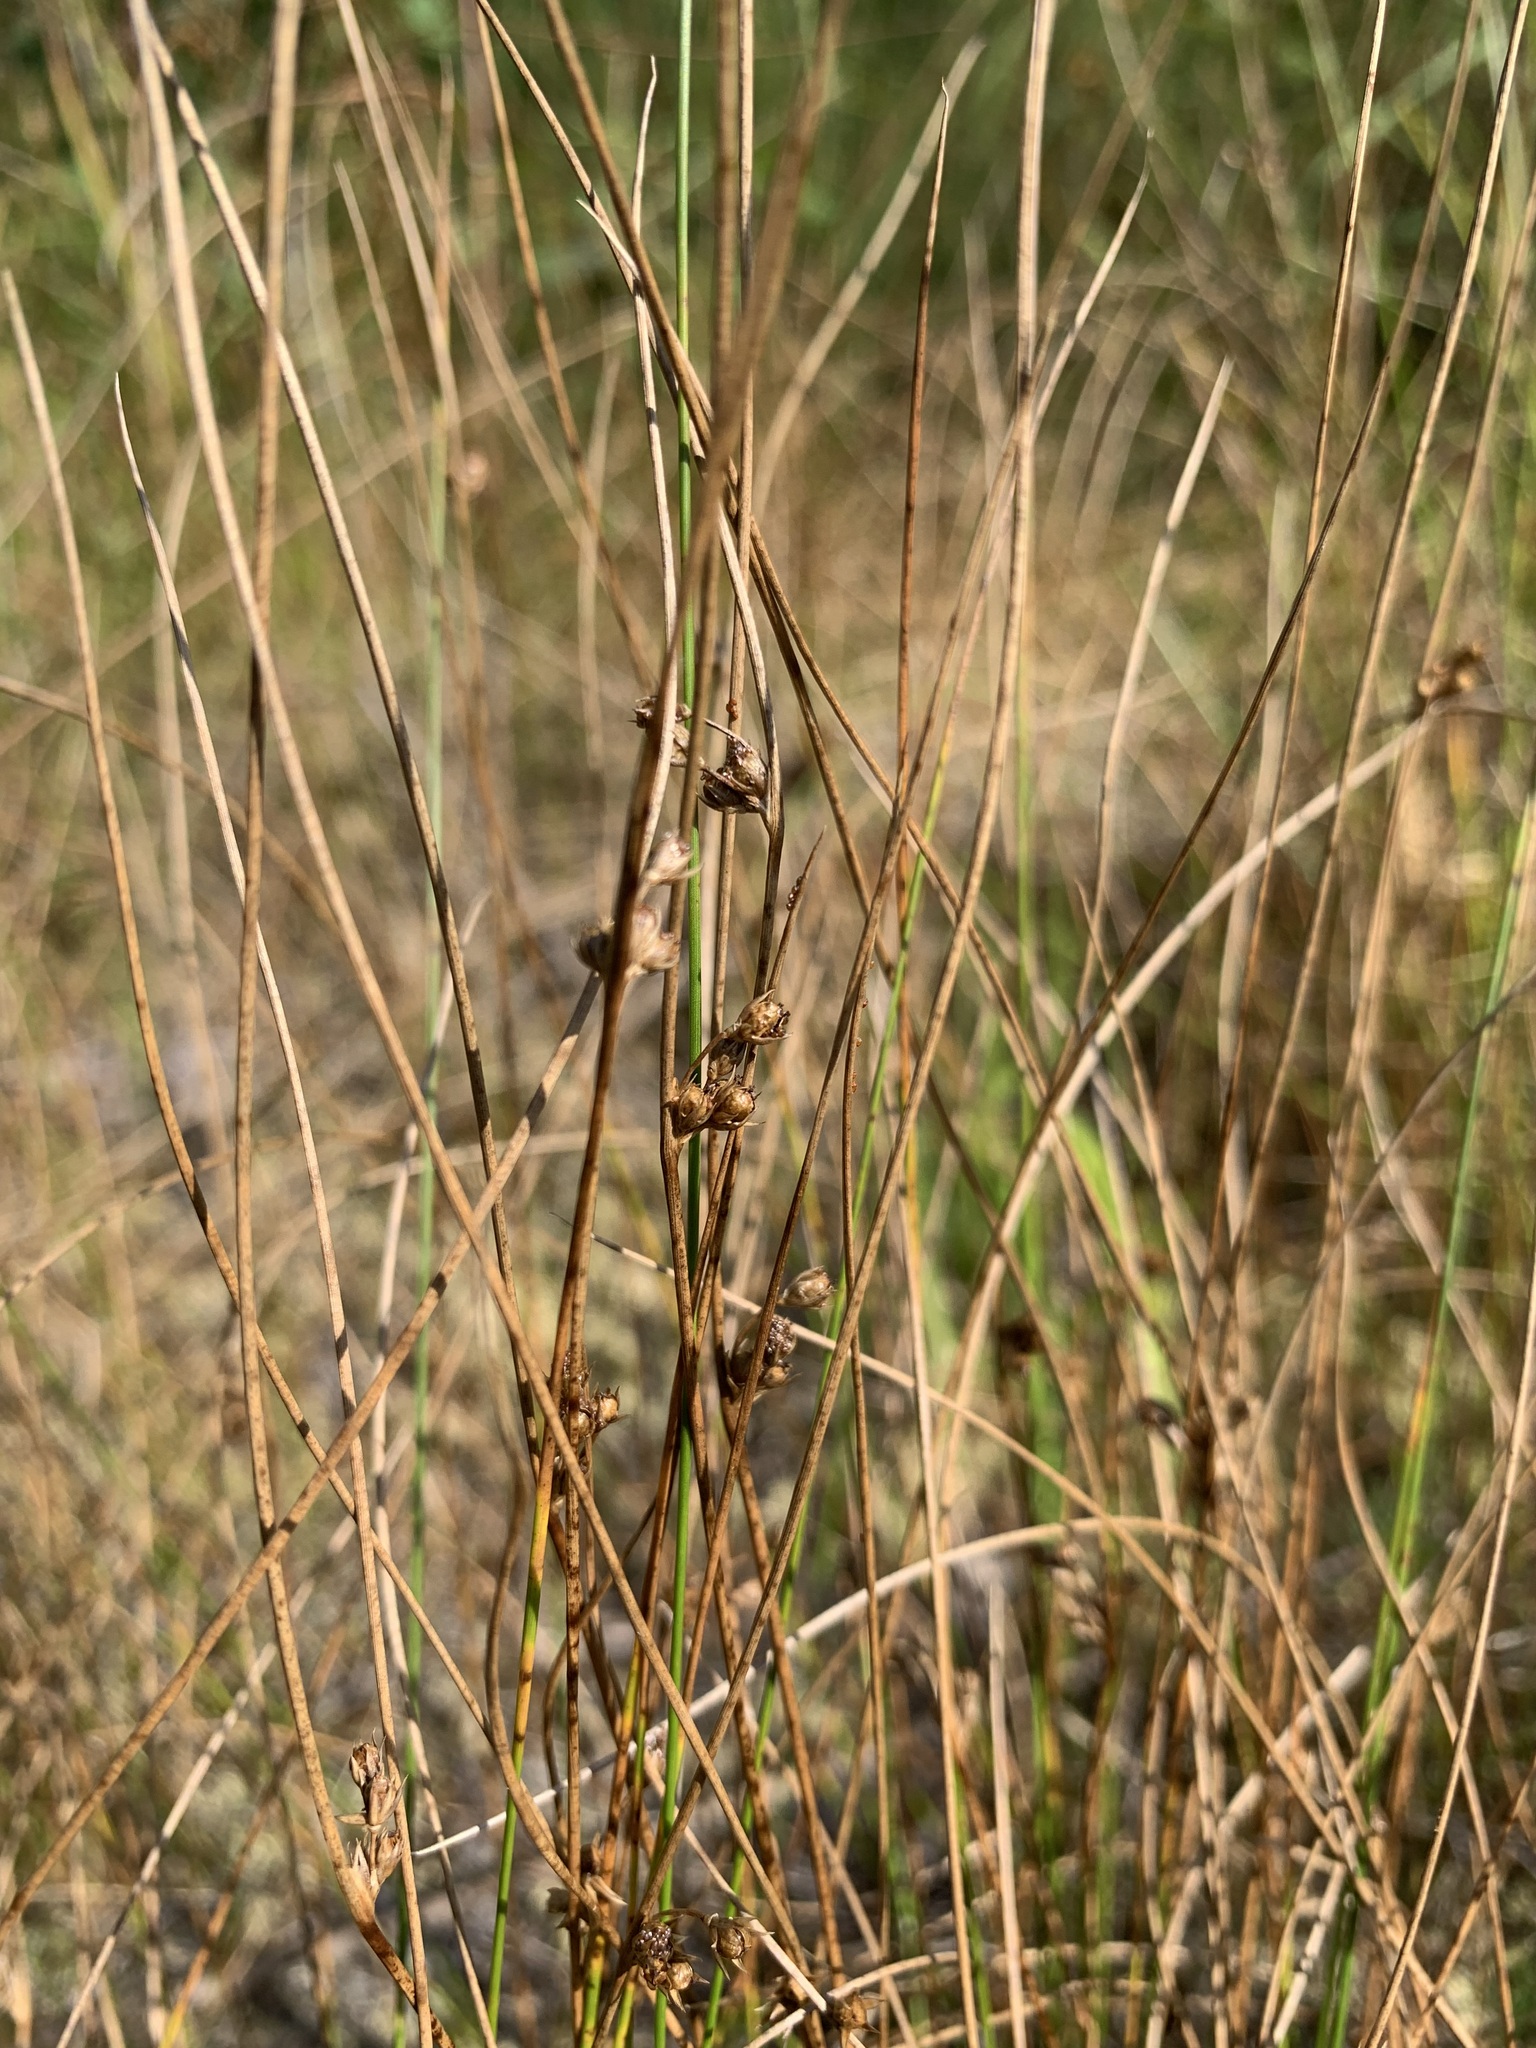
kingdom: Plantae
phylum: Tracheophyta
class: Liliopsida
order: Poales
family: Juncaceae
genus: Juncus
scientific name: Juncus filiformis
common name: Thread rush
